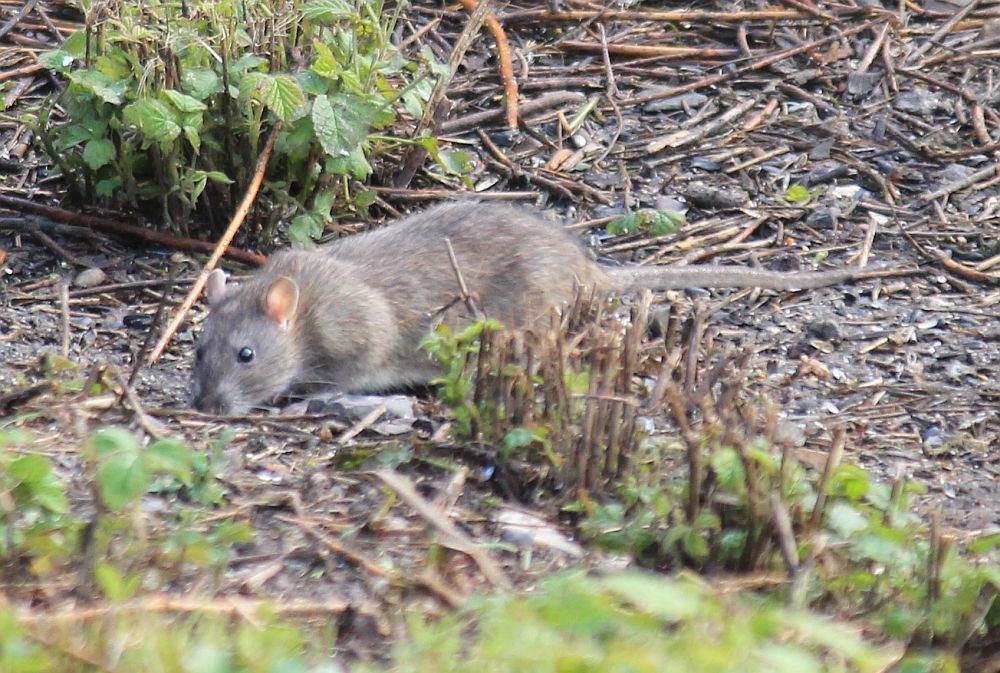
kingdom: Animalia
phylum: Chordata
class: Mammalia
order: Rodentia
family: Muridae
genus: Rattus
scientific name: Rattus norvegicus
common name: Brown rat
